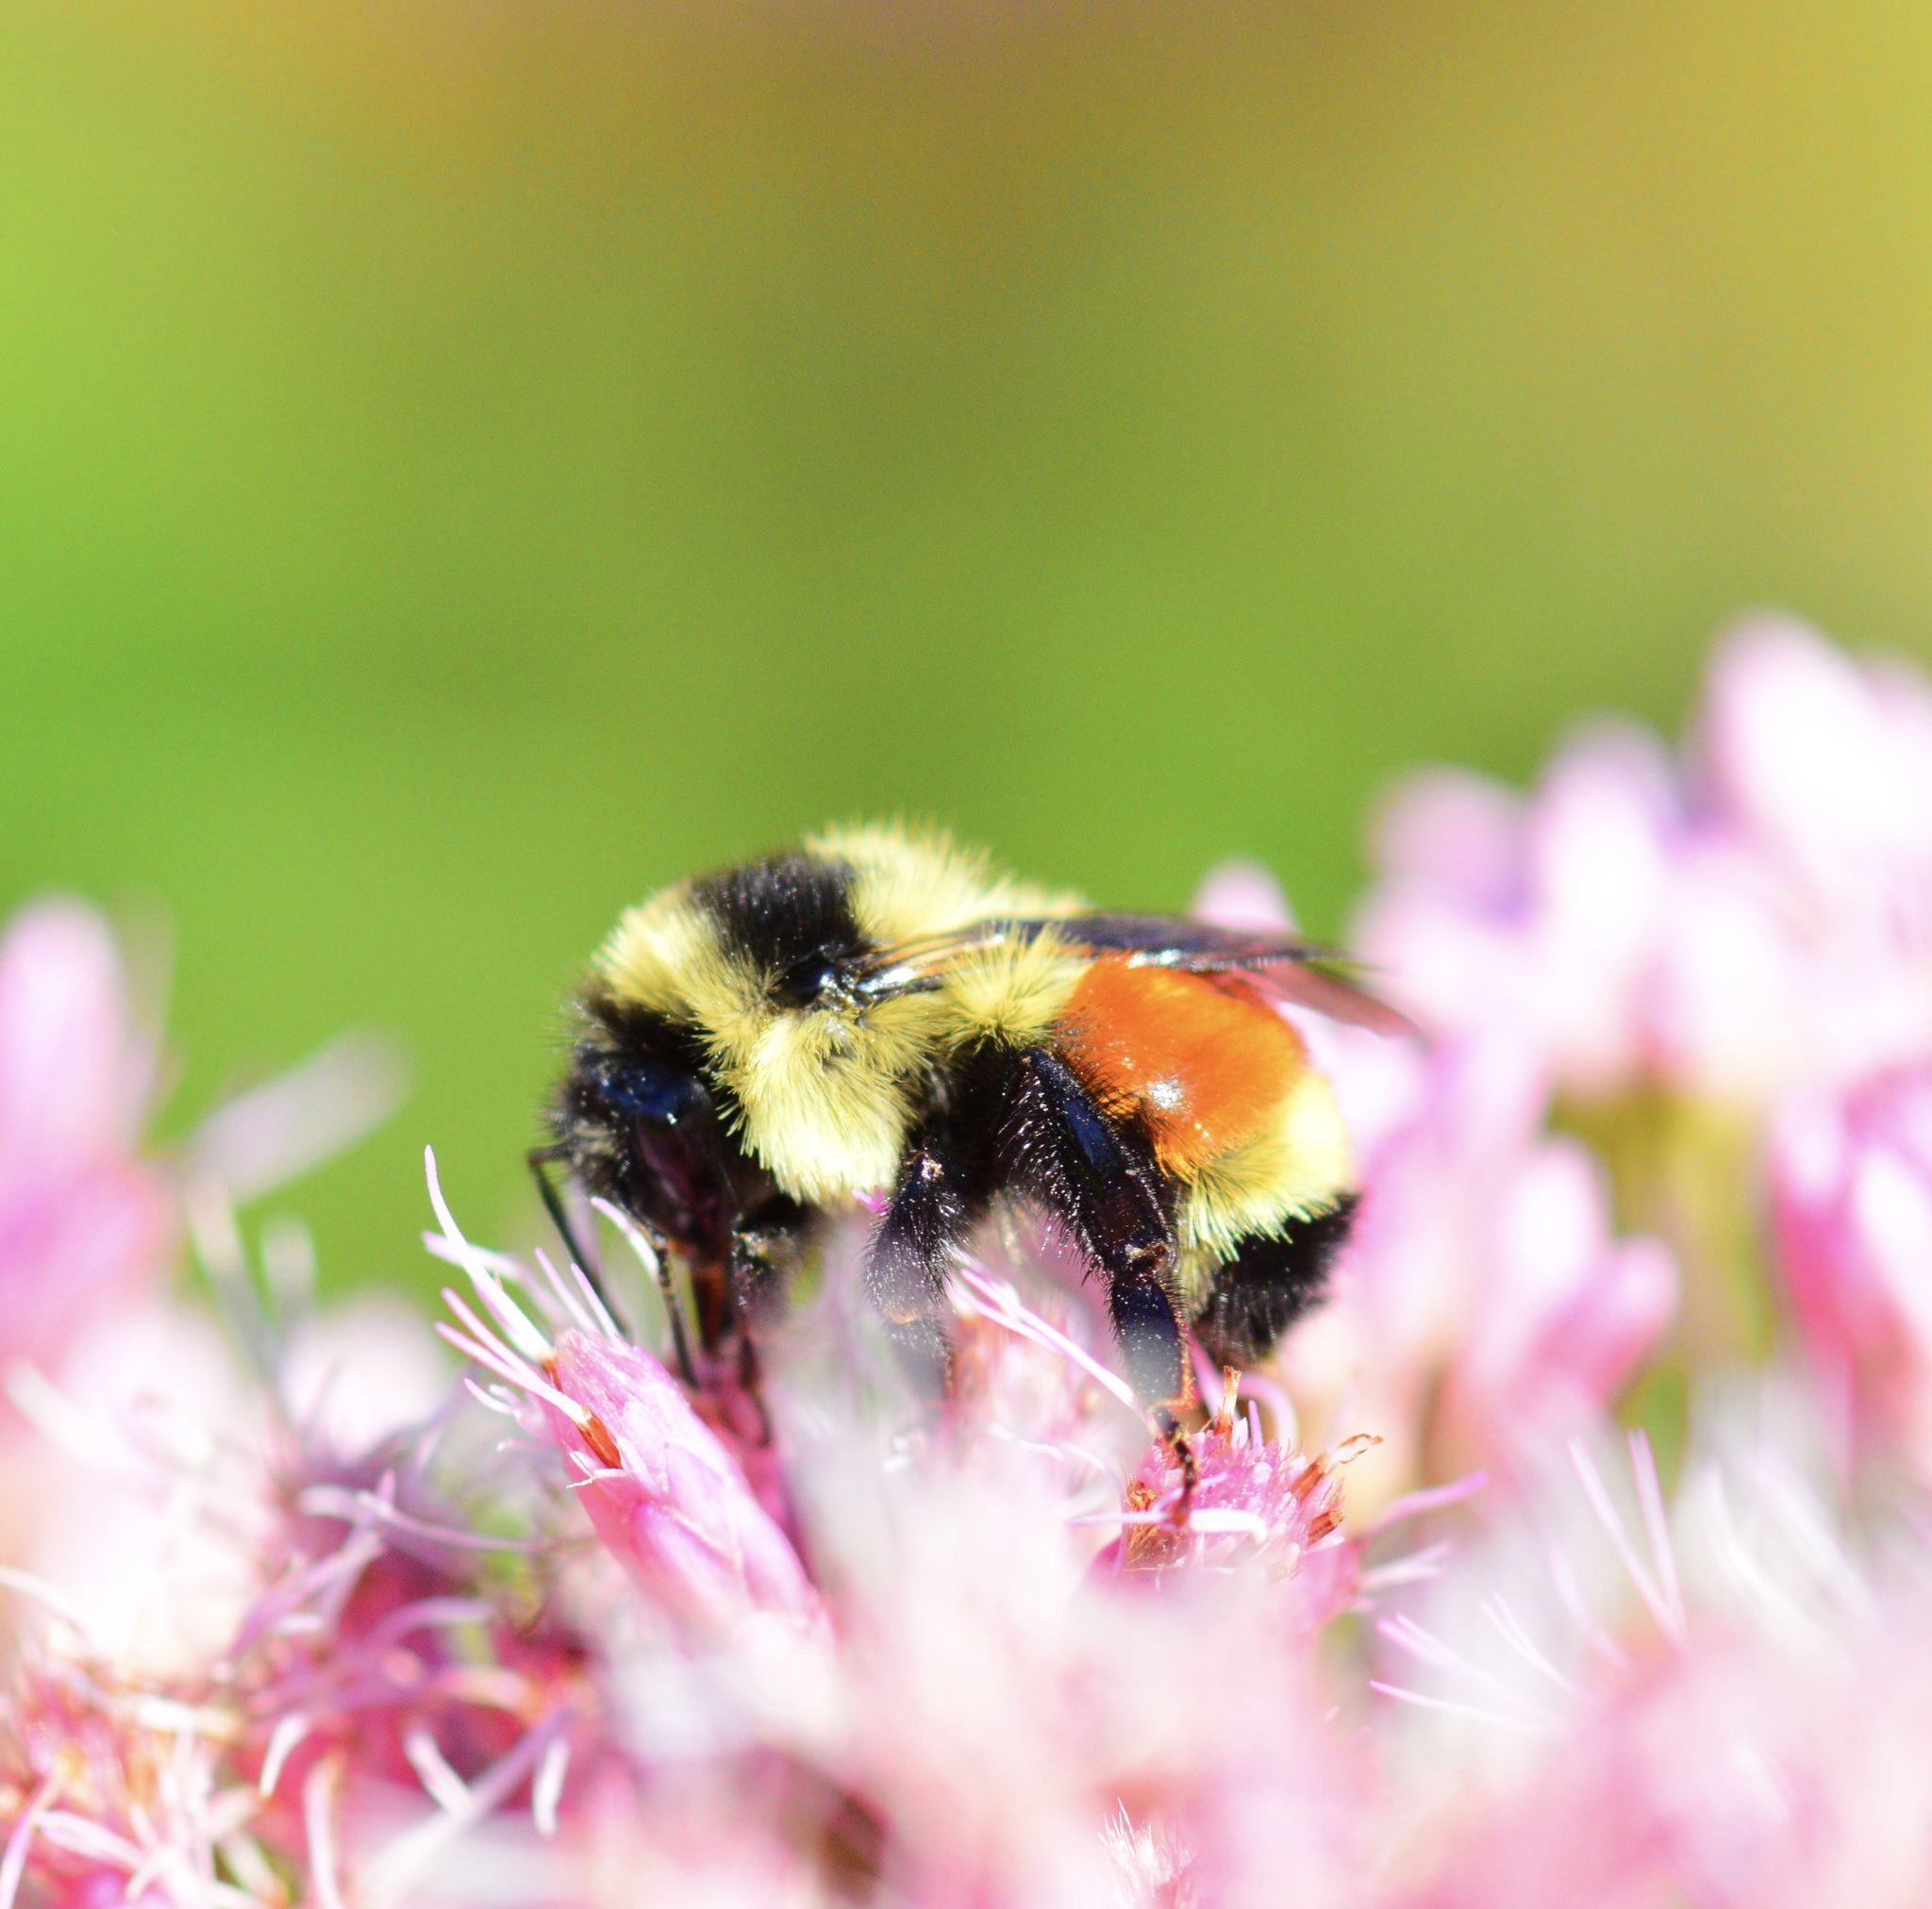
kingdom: Animalia
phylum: Arthropoda
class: Insecta
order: Hymenoptera
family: Apidae
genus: Bombus
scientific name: Bombus ternarius
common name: Tri-colored bumble bee
